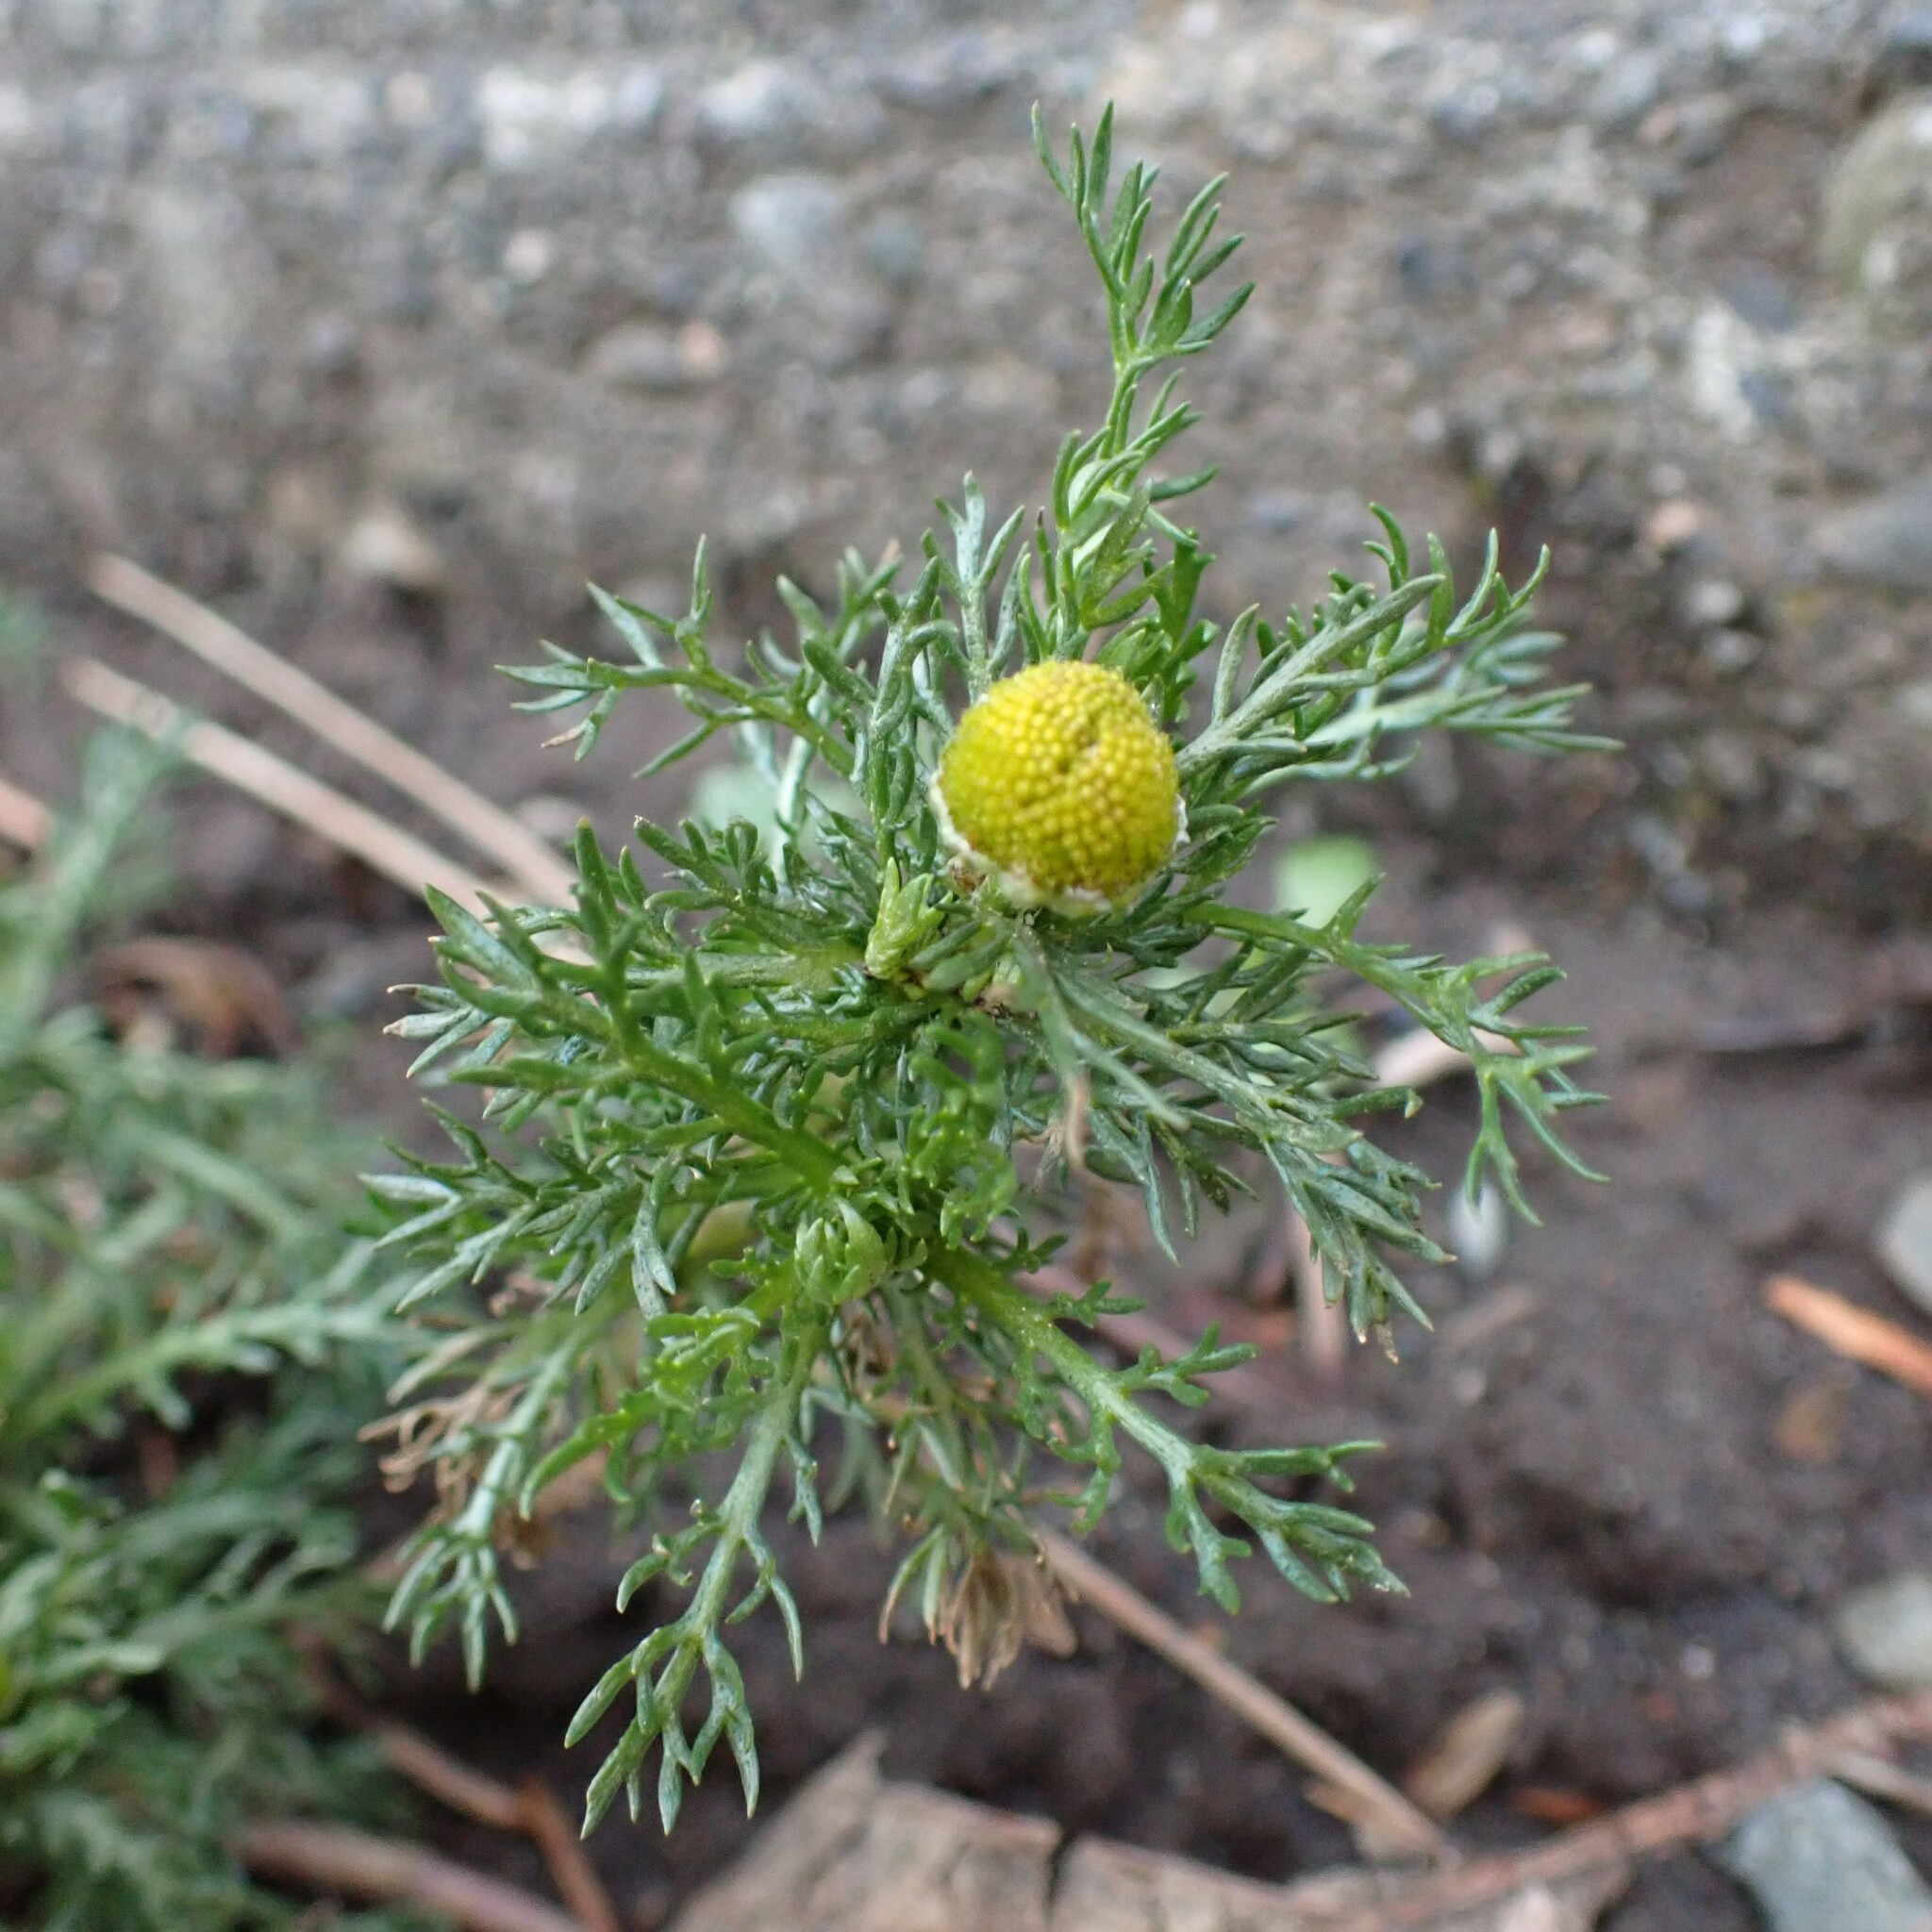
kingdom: Plantae
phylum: Tracheophyta
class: Magnoliopsida
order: Asterales
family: Asteraceae
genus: Matricaria
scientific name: Matricaria discoidea
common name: Disc mayweed
